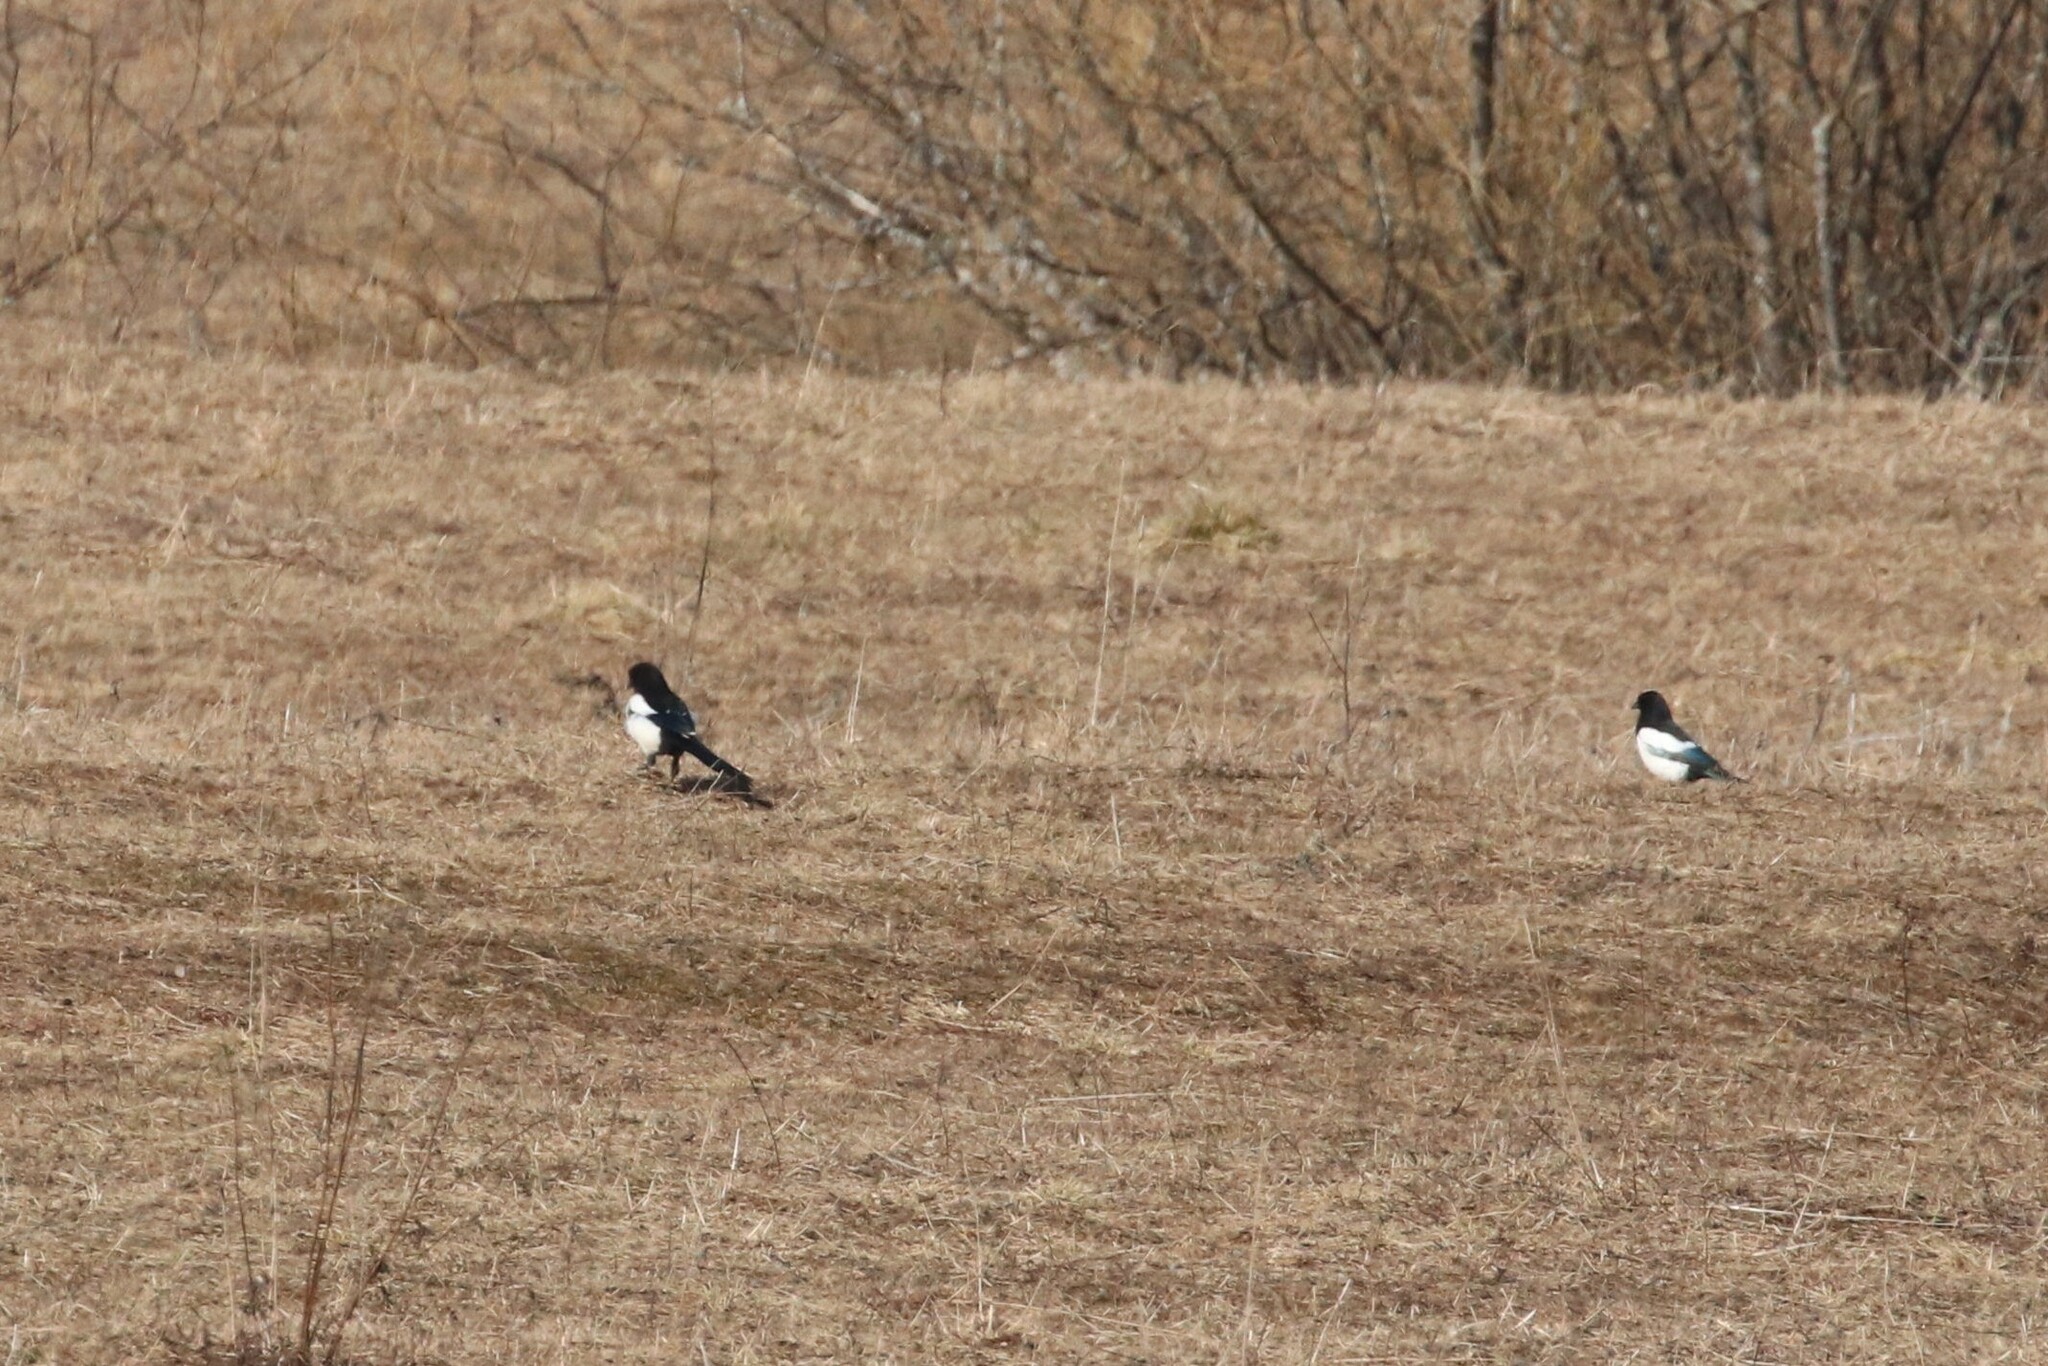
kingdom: Animalia
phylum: Chordata
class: Aves
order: Passeriformes
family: Corvidae
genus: Pica
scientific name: Pica pica
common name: Eurasian magpie
